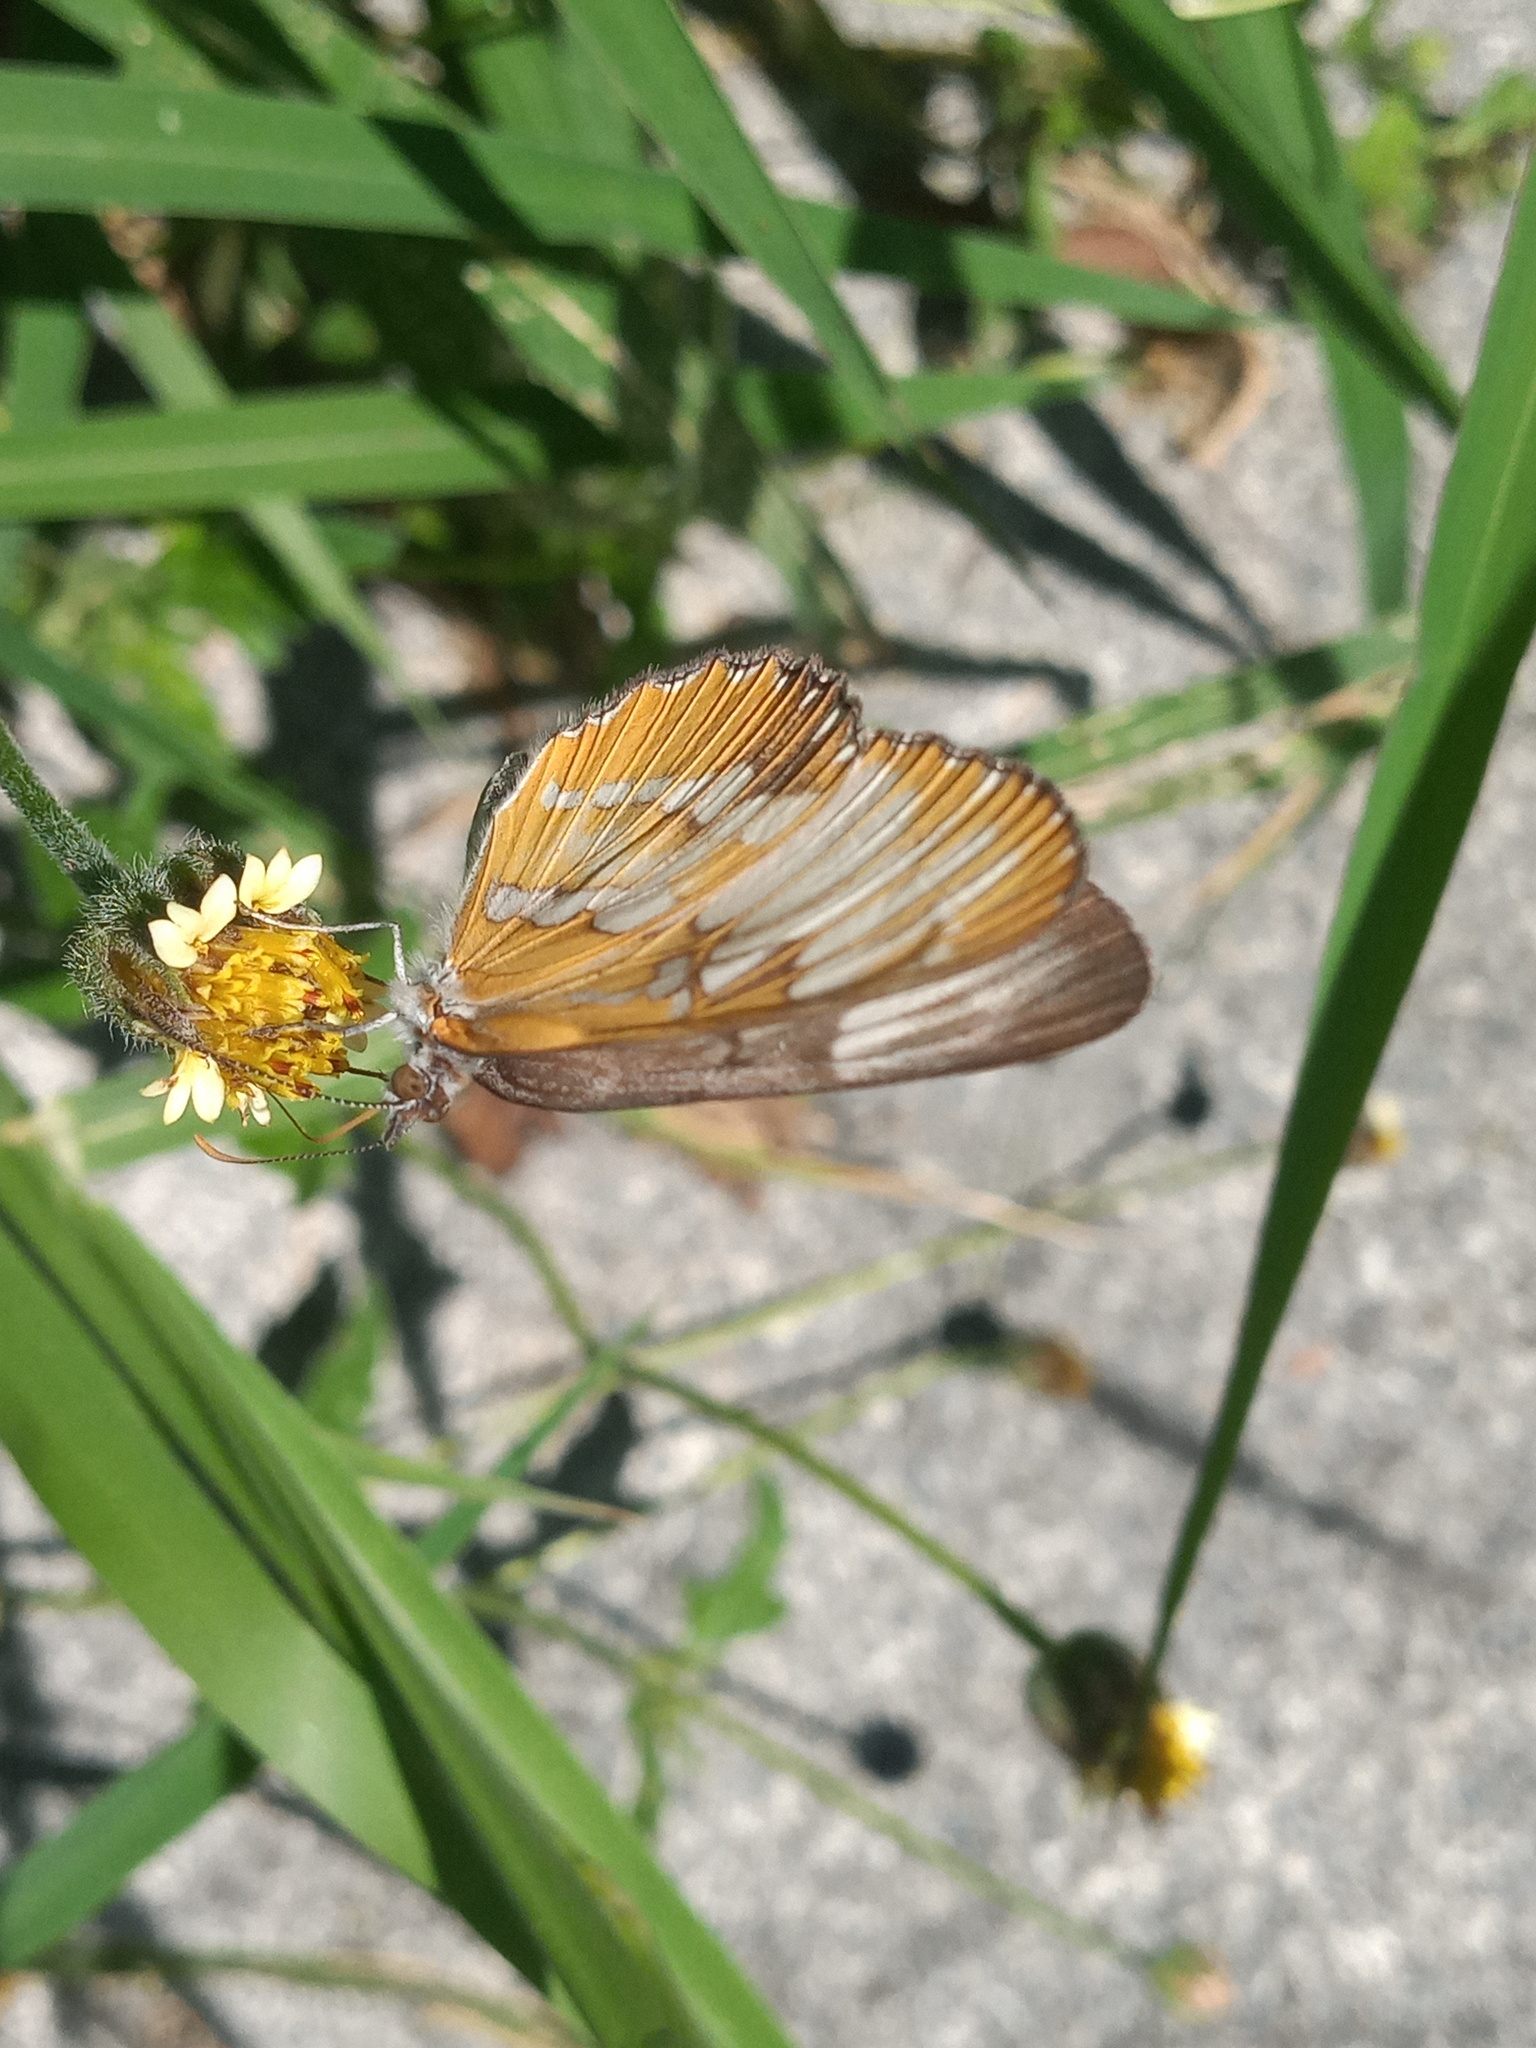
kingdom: Animalia
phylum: Arthropoda
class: Insecta
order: Lepidoptera
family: Nymphalidae
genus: Mestra
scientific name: Mestra amymone
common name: Common mestra
